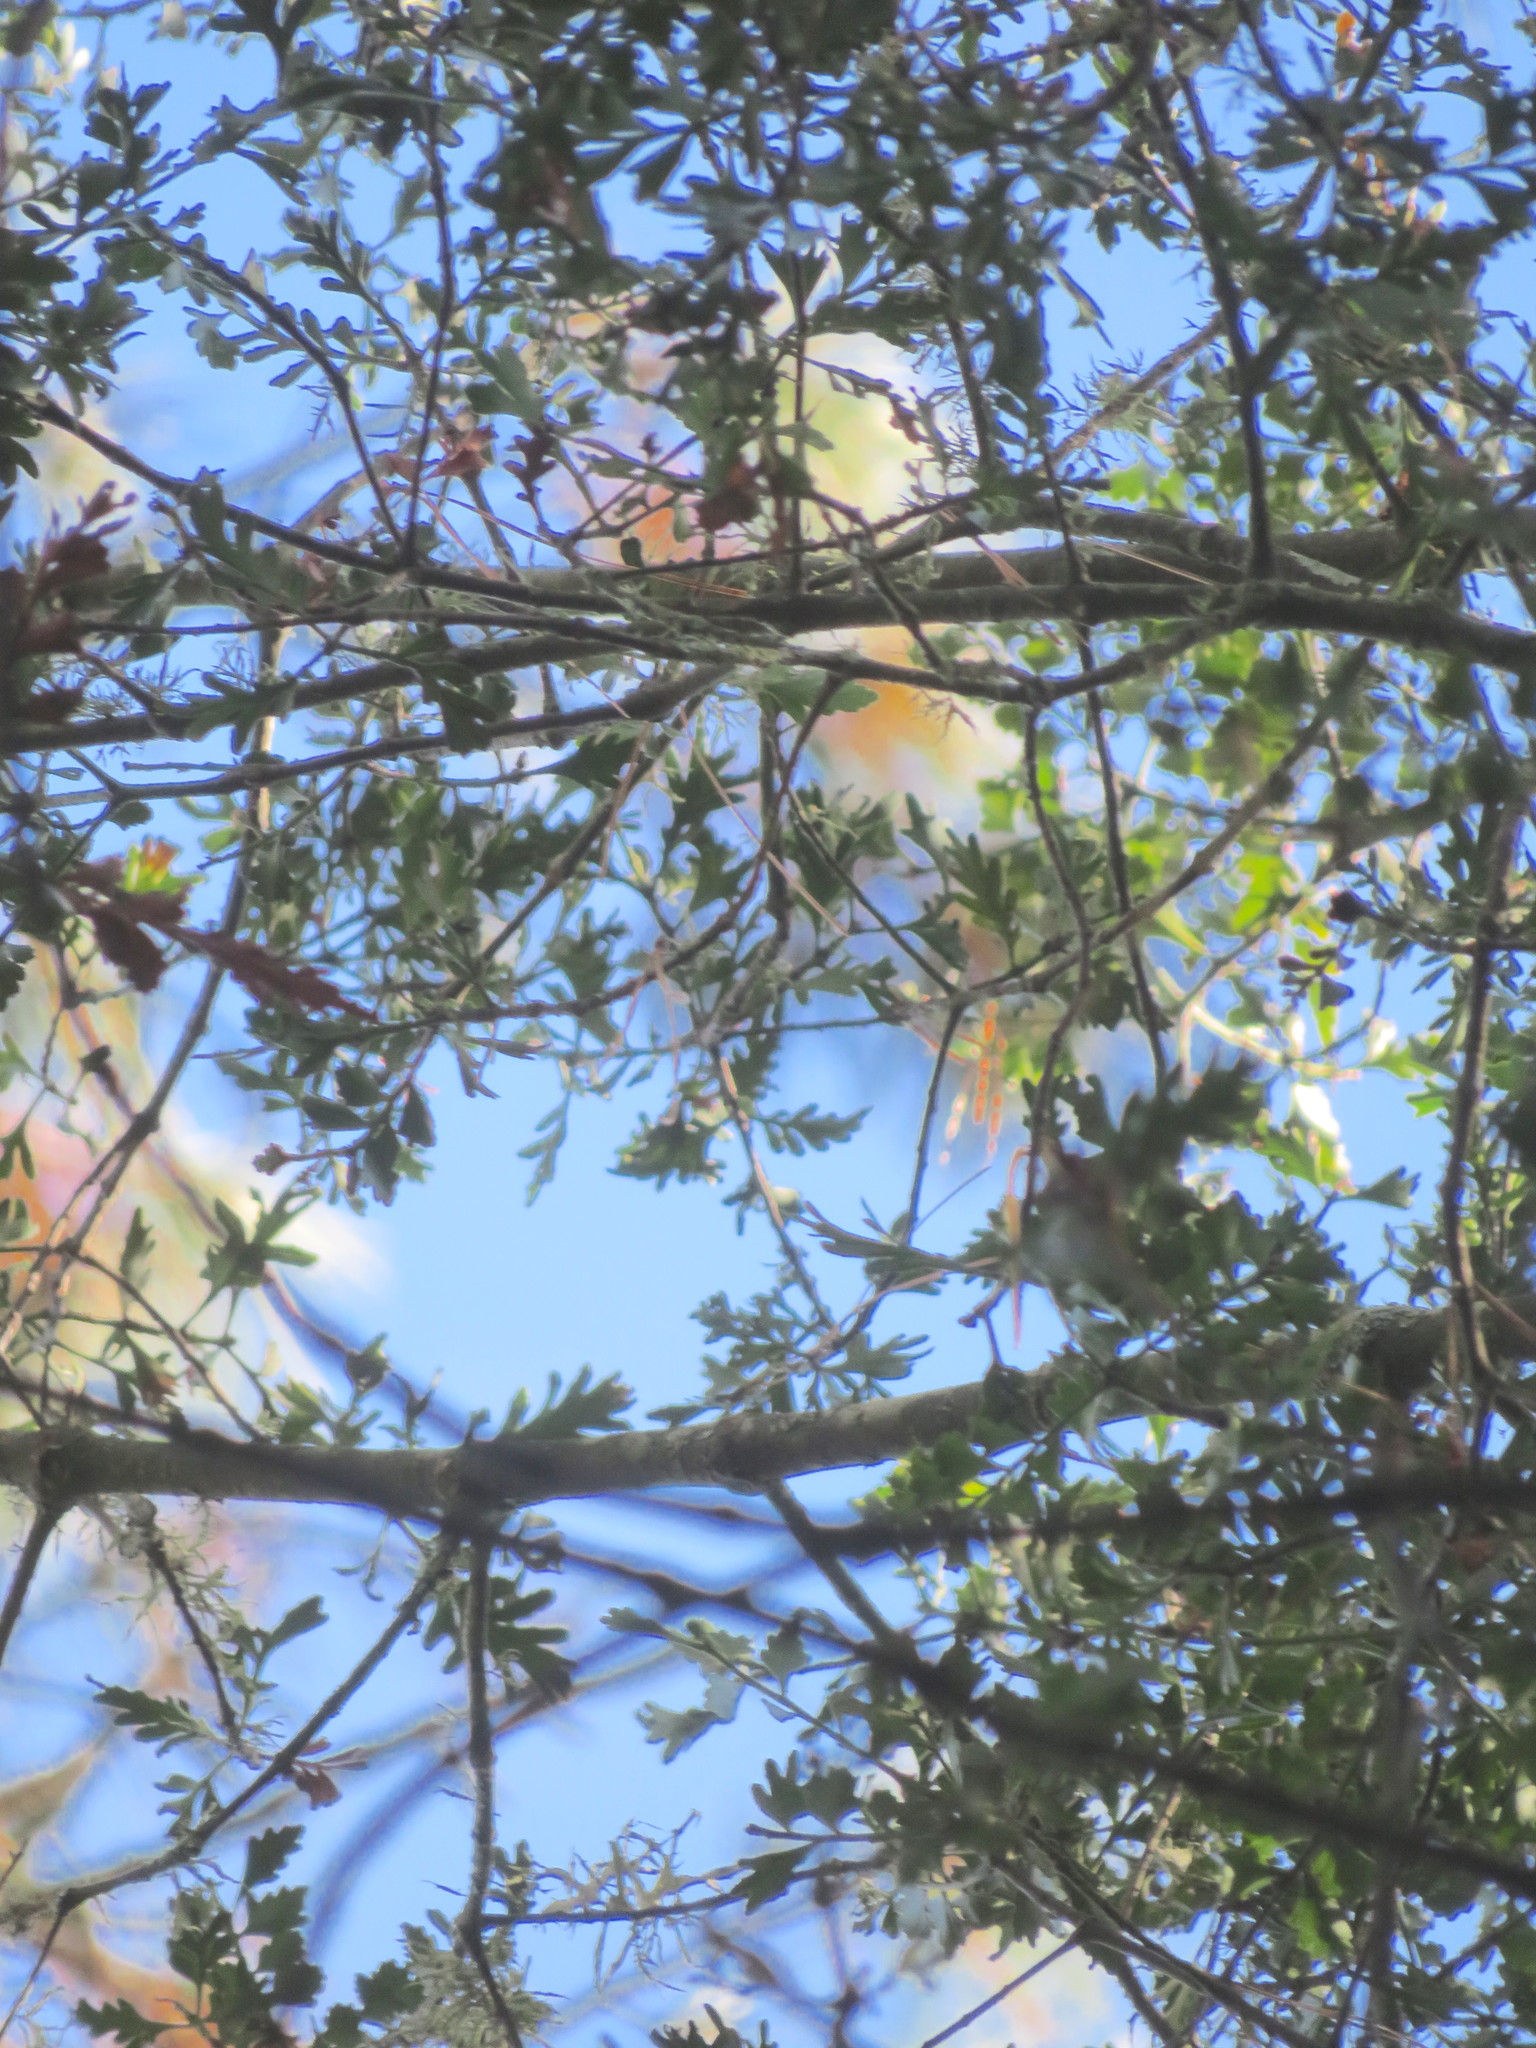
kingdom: Plantae
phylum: Tracheophyta
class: Pinopsida
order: Pinales
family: Phyllocladaceae
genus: Phyllocladus
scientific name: Phyllocladus trichomanoides
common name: Celery pine
